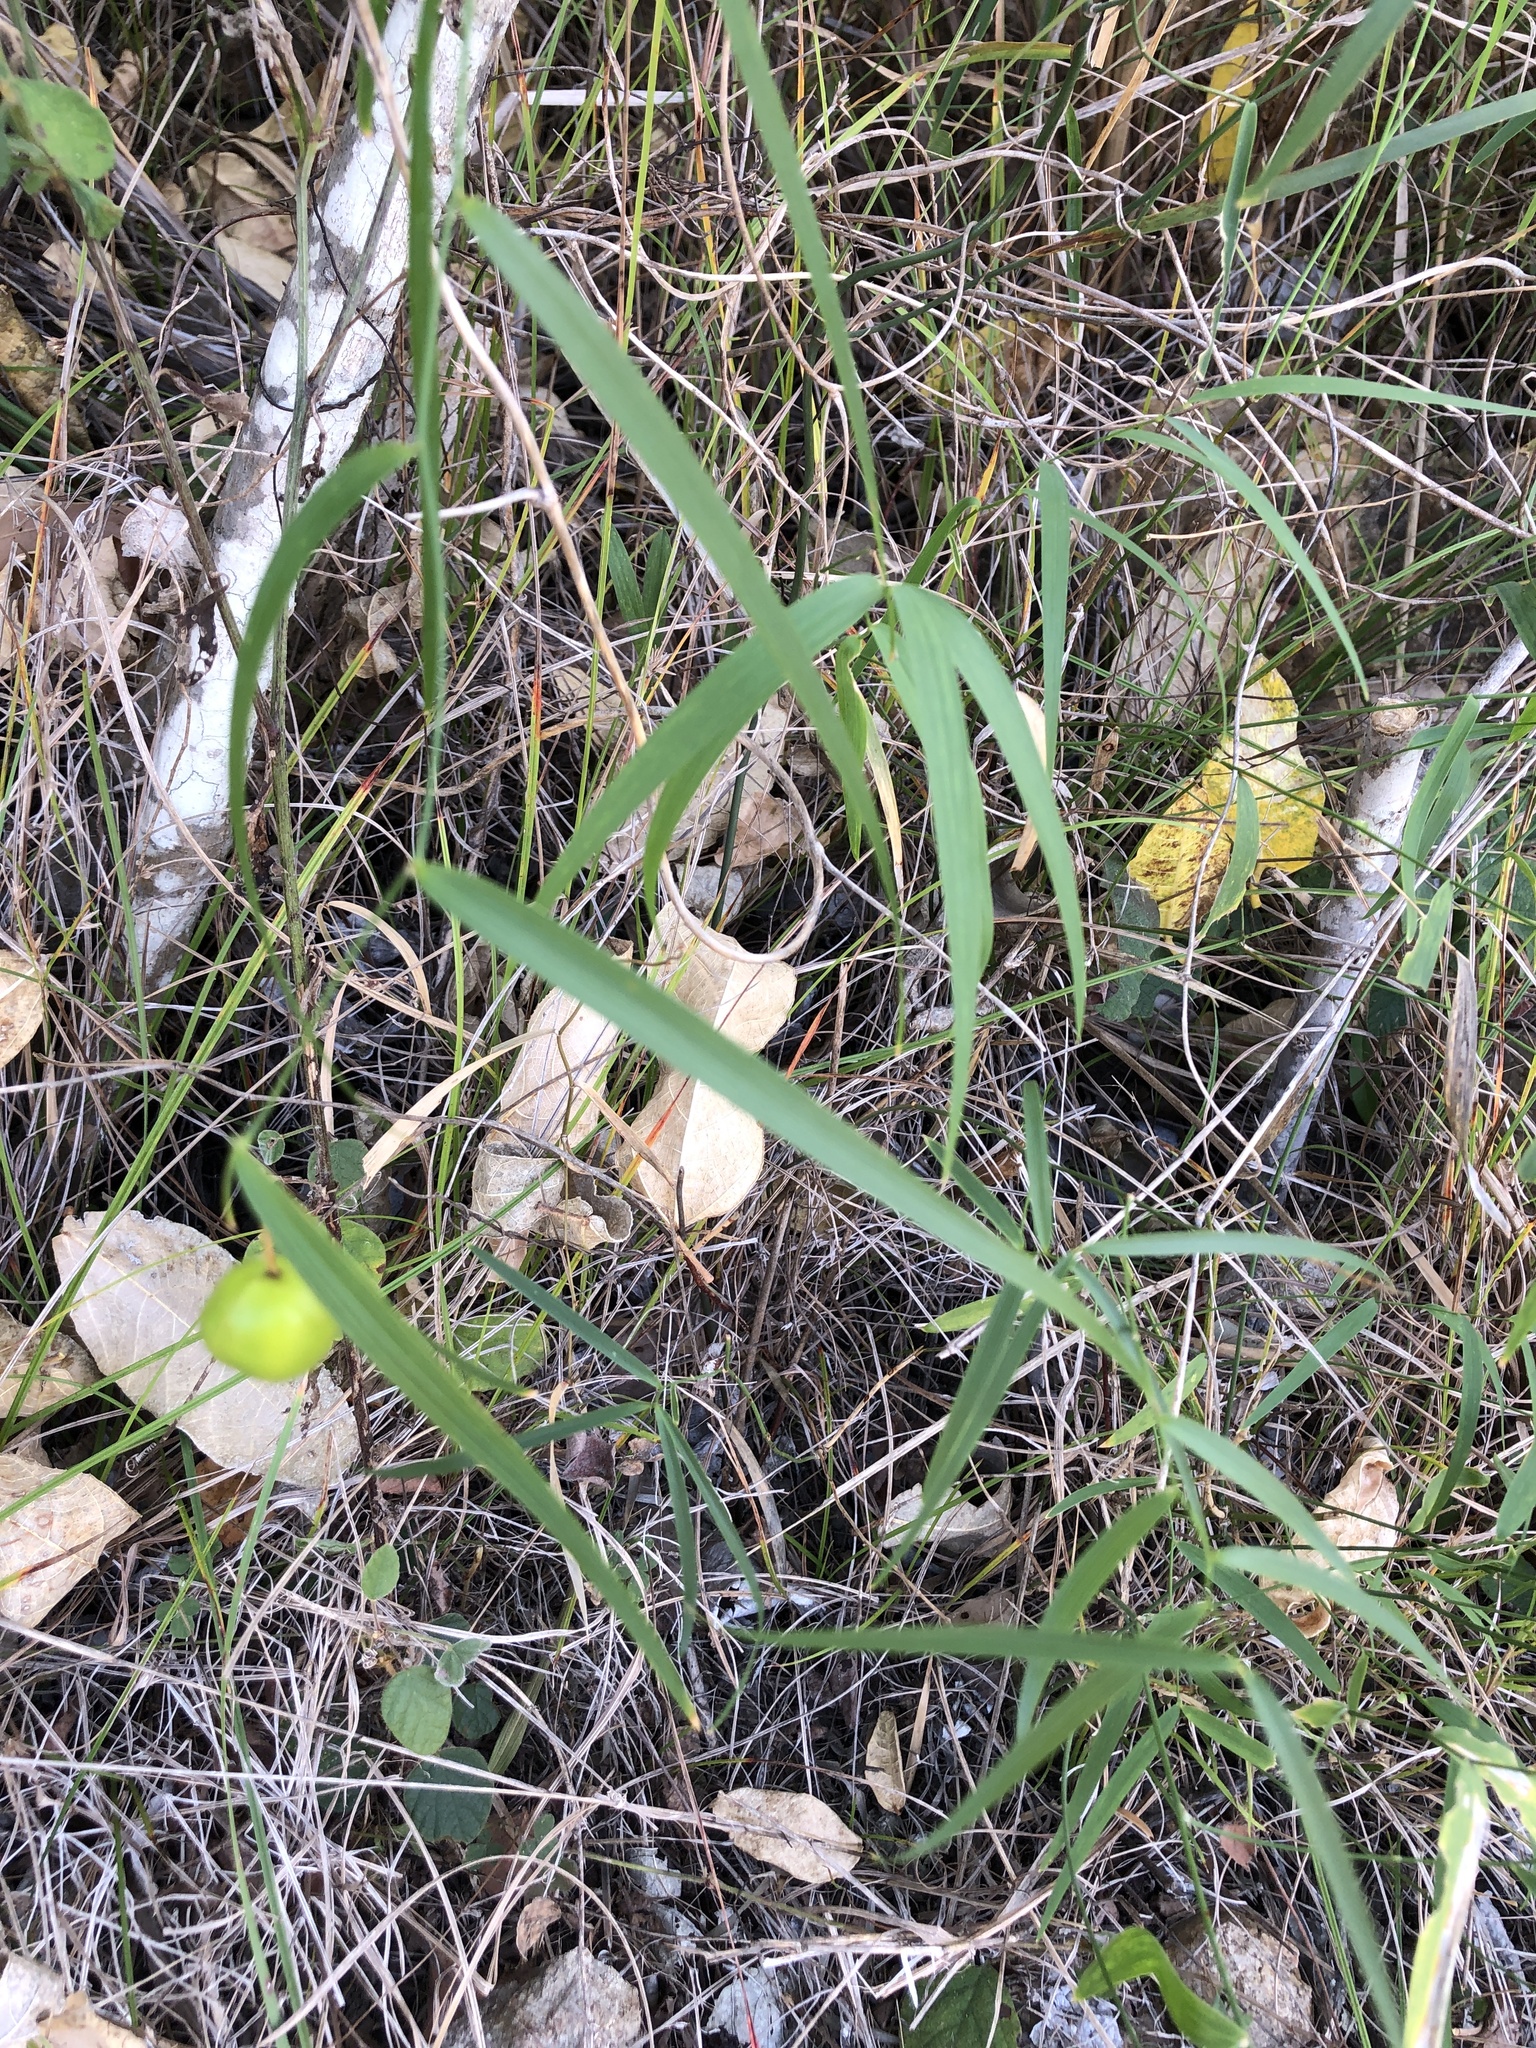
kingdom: Plantae
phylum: Tracheophyta
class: Liliopsida
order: Asparagales
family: Asparagaceae
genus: Eustrephus
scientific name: Eustrephus latifolius
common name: Orangevine
